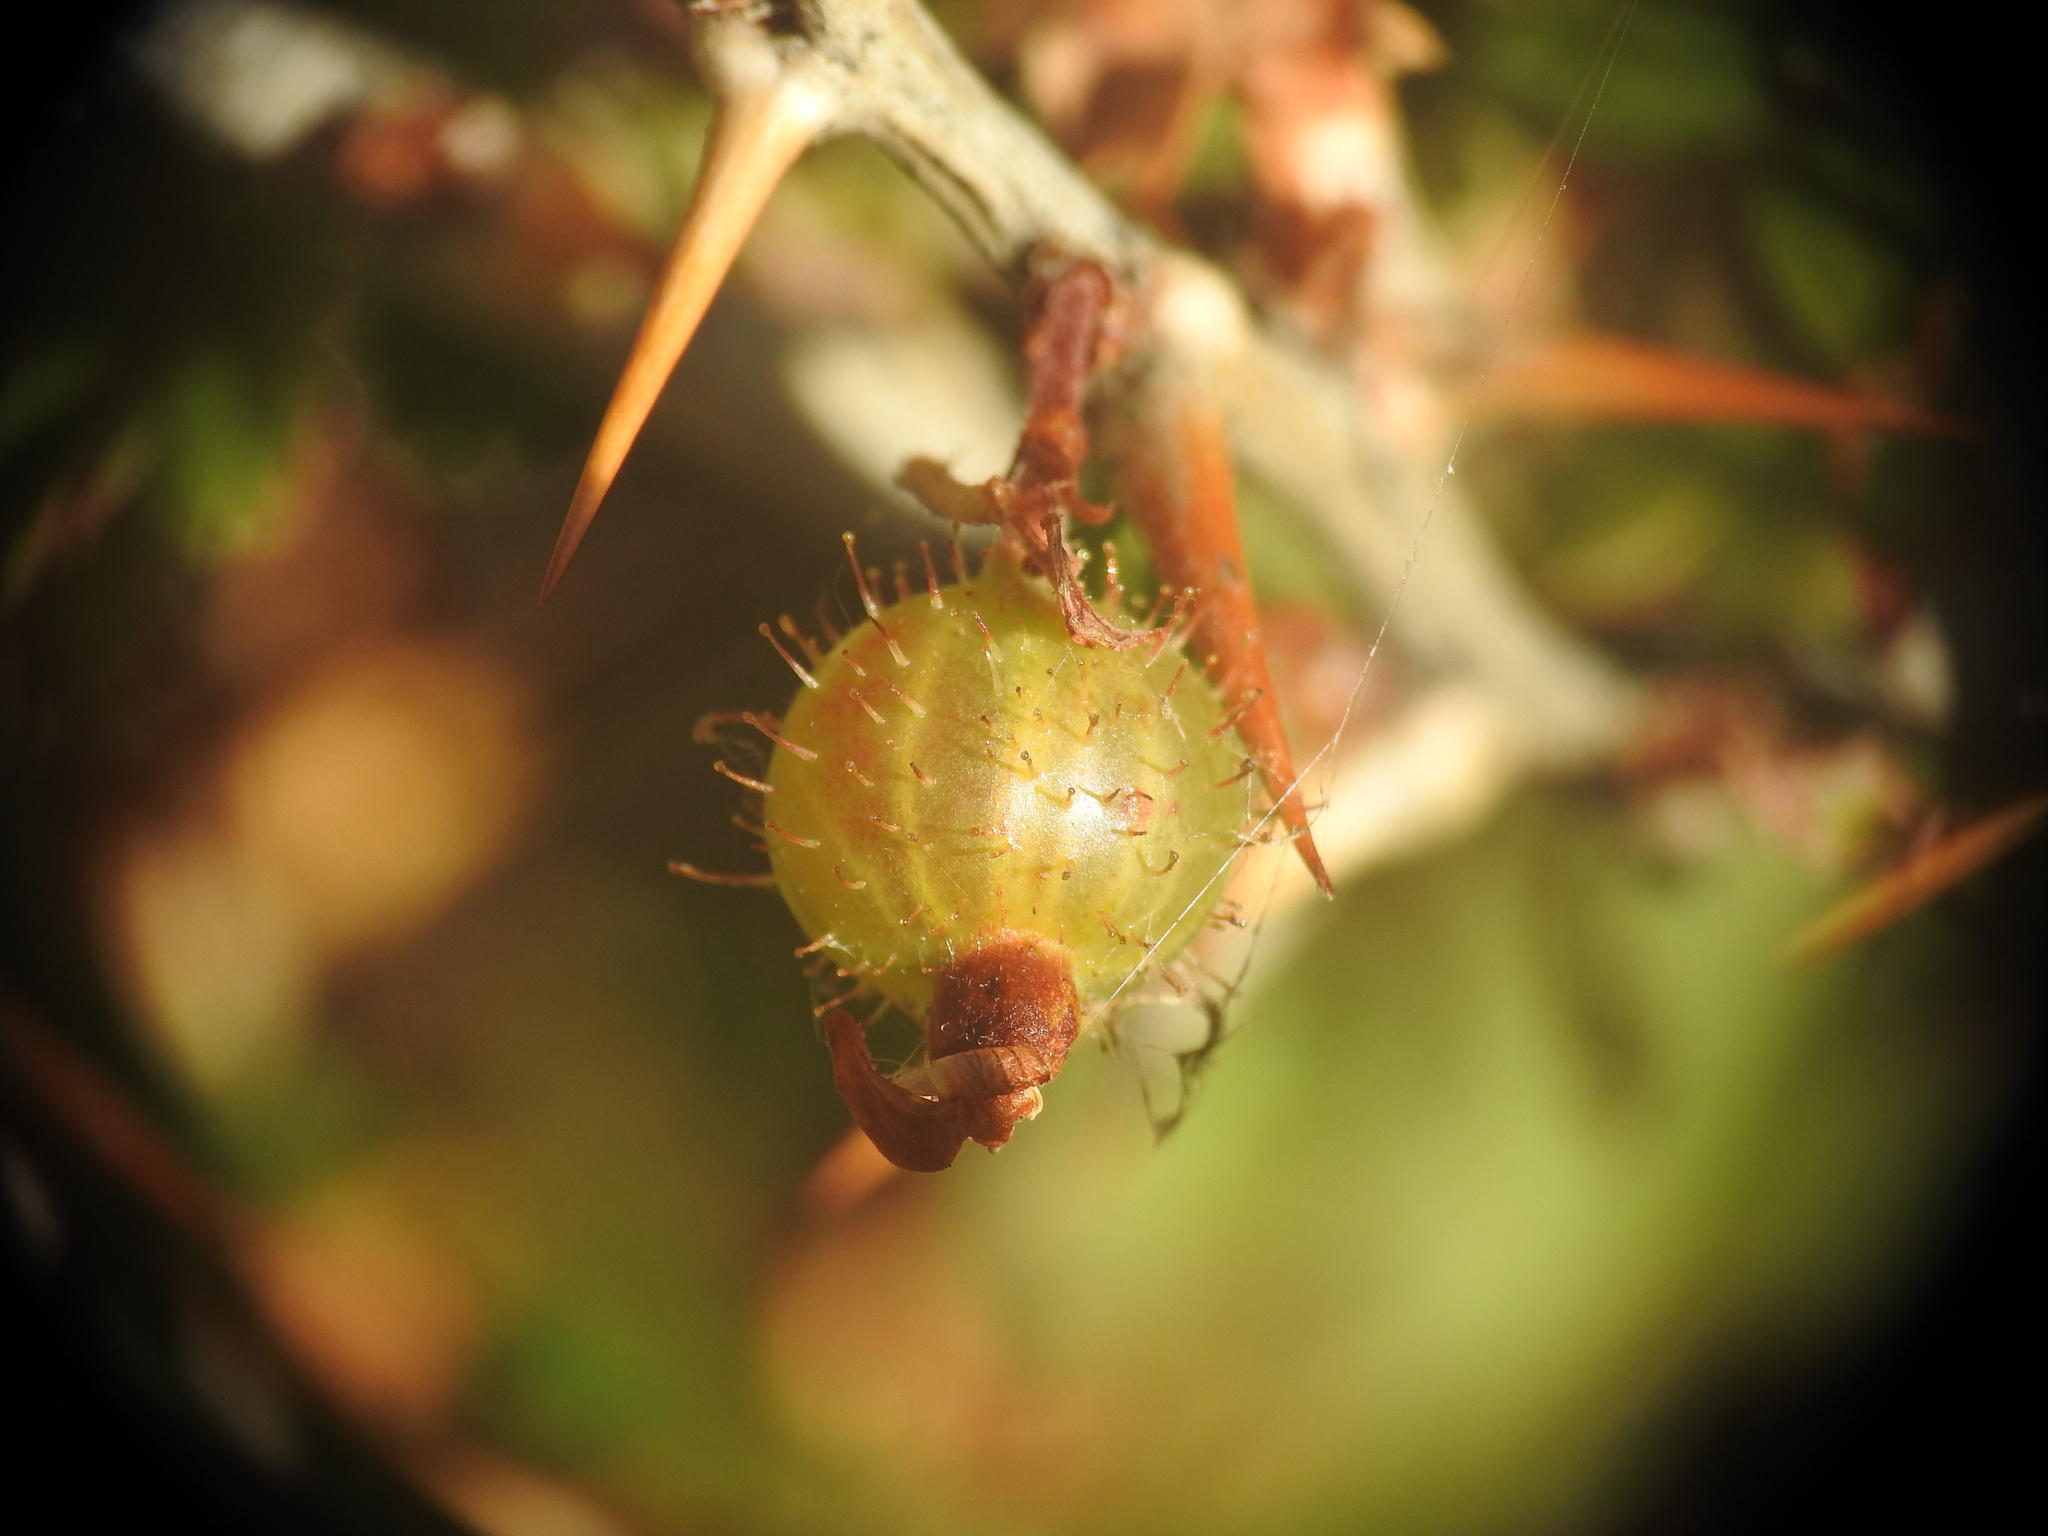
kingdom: Plantae
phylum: Tracheophyta
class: Magnoliopsida
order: Saxifragales
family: Grossulariaceae
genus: Ribes
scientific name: Ribes uva-crispa
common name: Gooseberry
